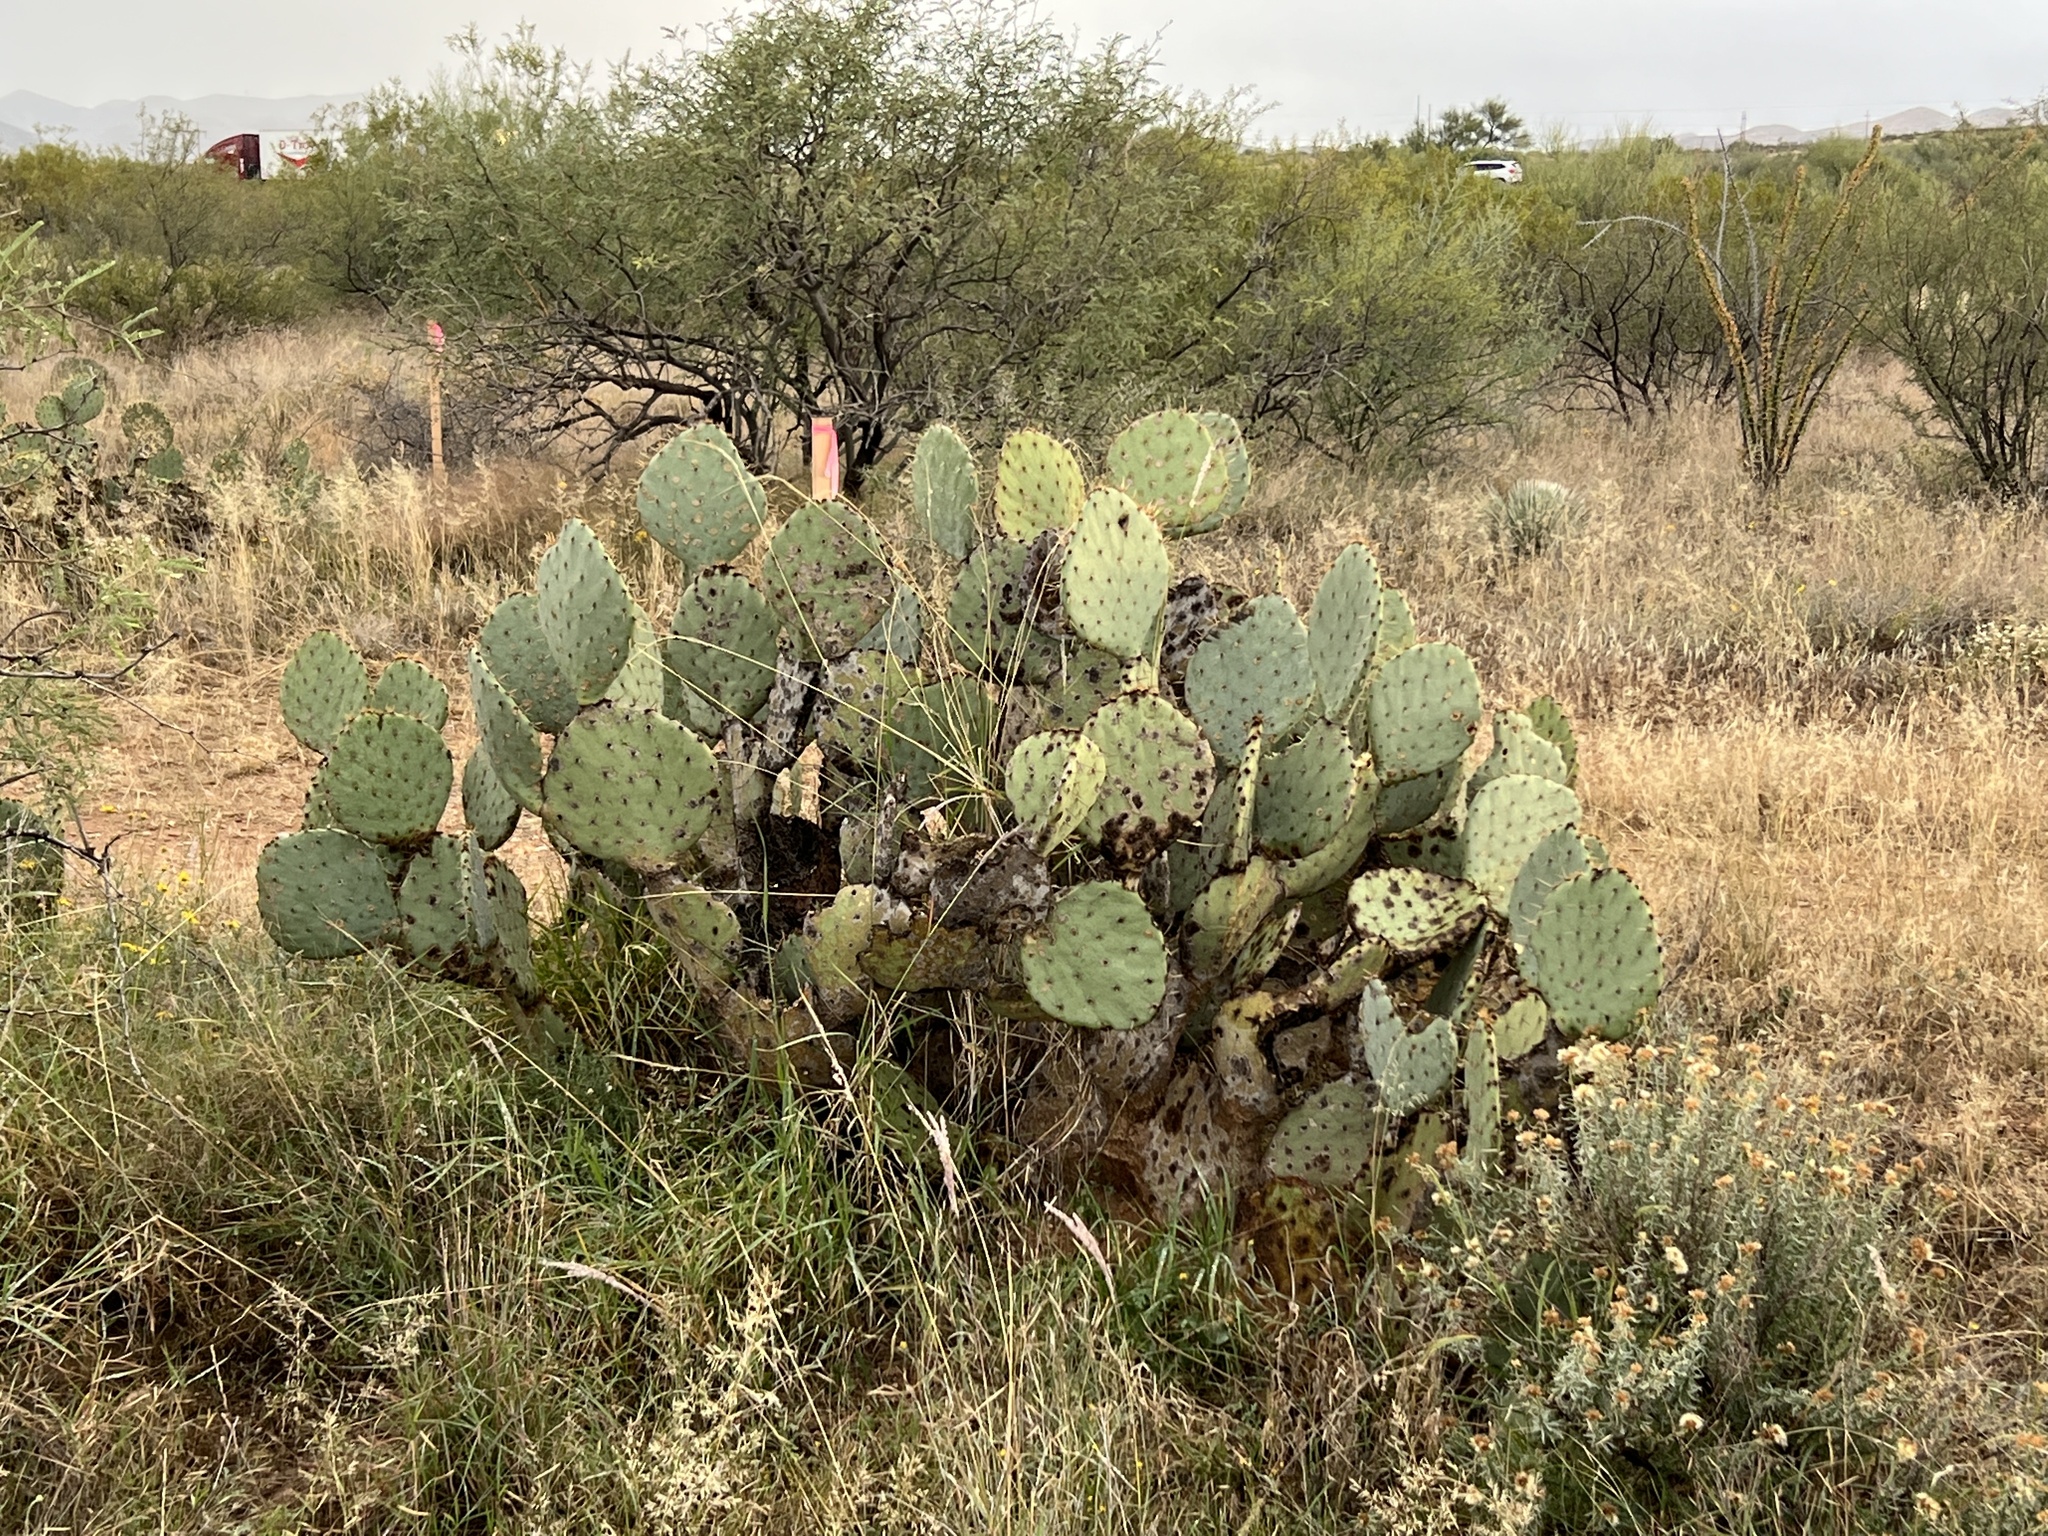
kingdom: Plantae
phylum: Tracheophyta
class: Magnoliopsida
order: Caryophyllales
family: Cactaceae
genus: Opuntia
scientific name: Opuntia engelmannii
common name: Cactus-apple
